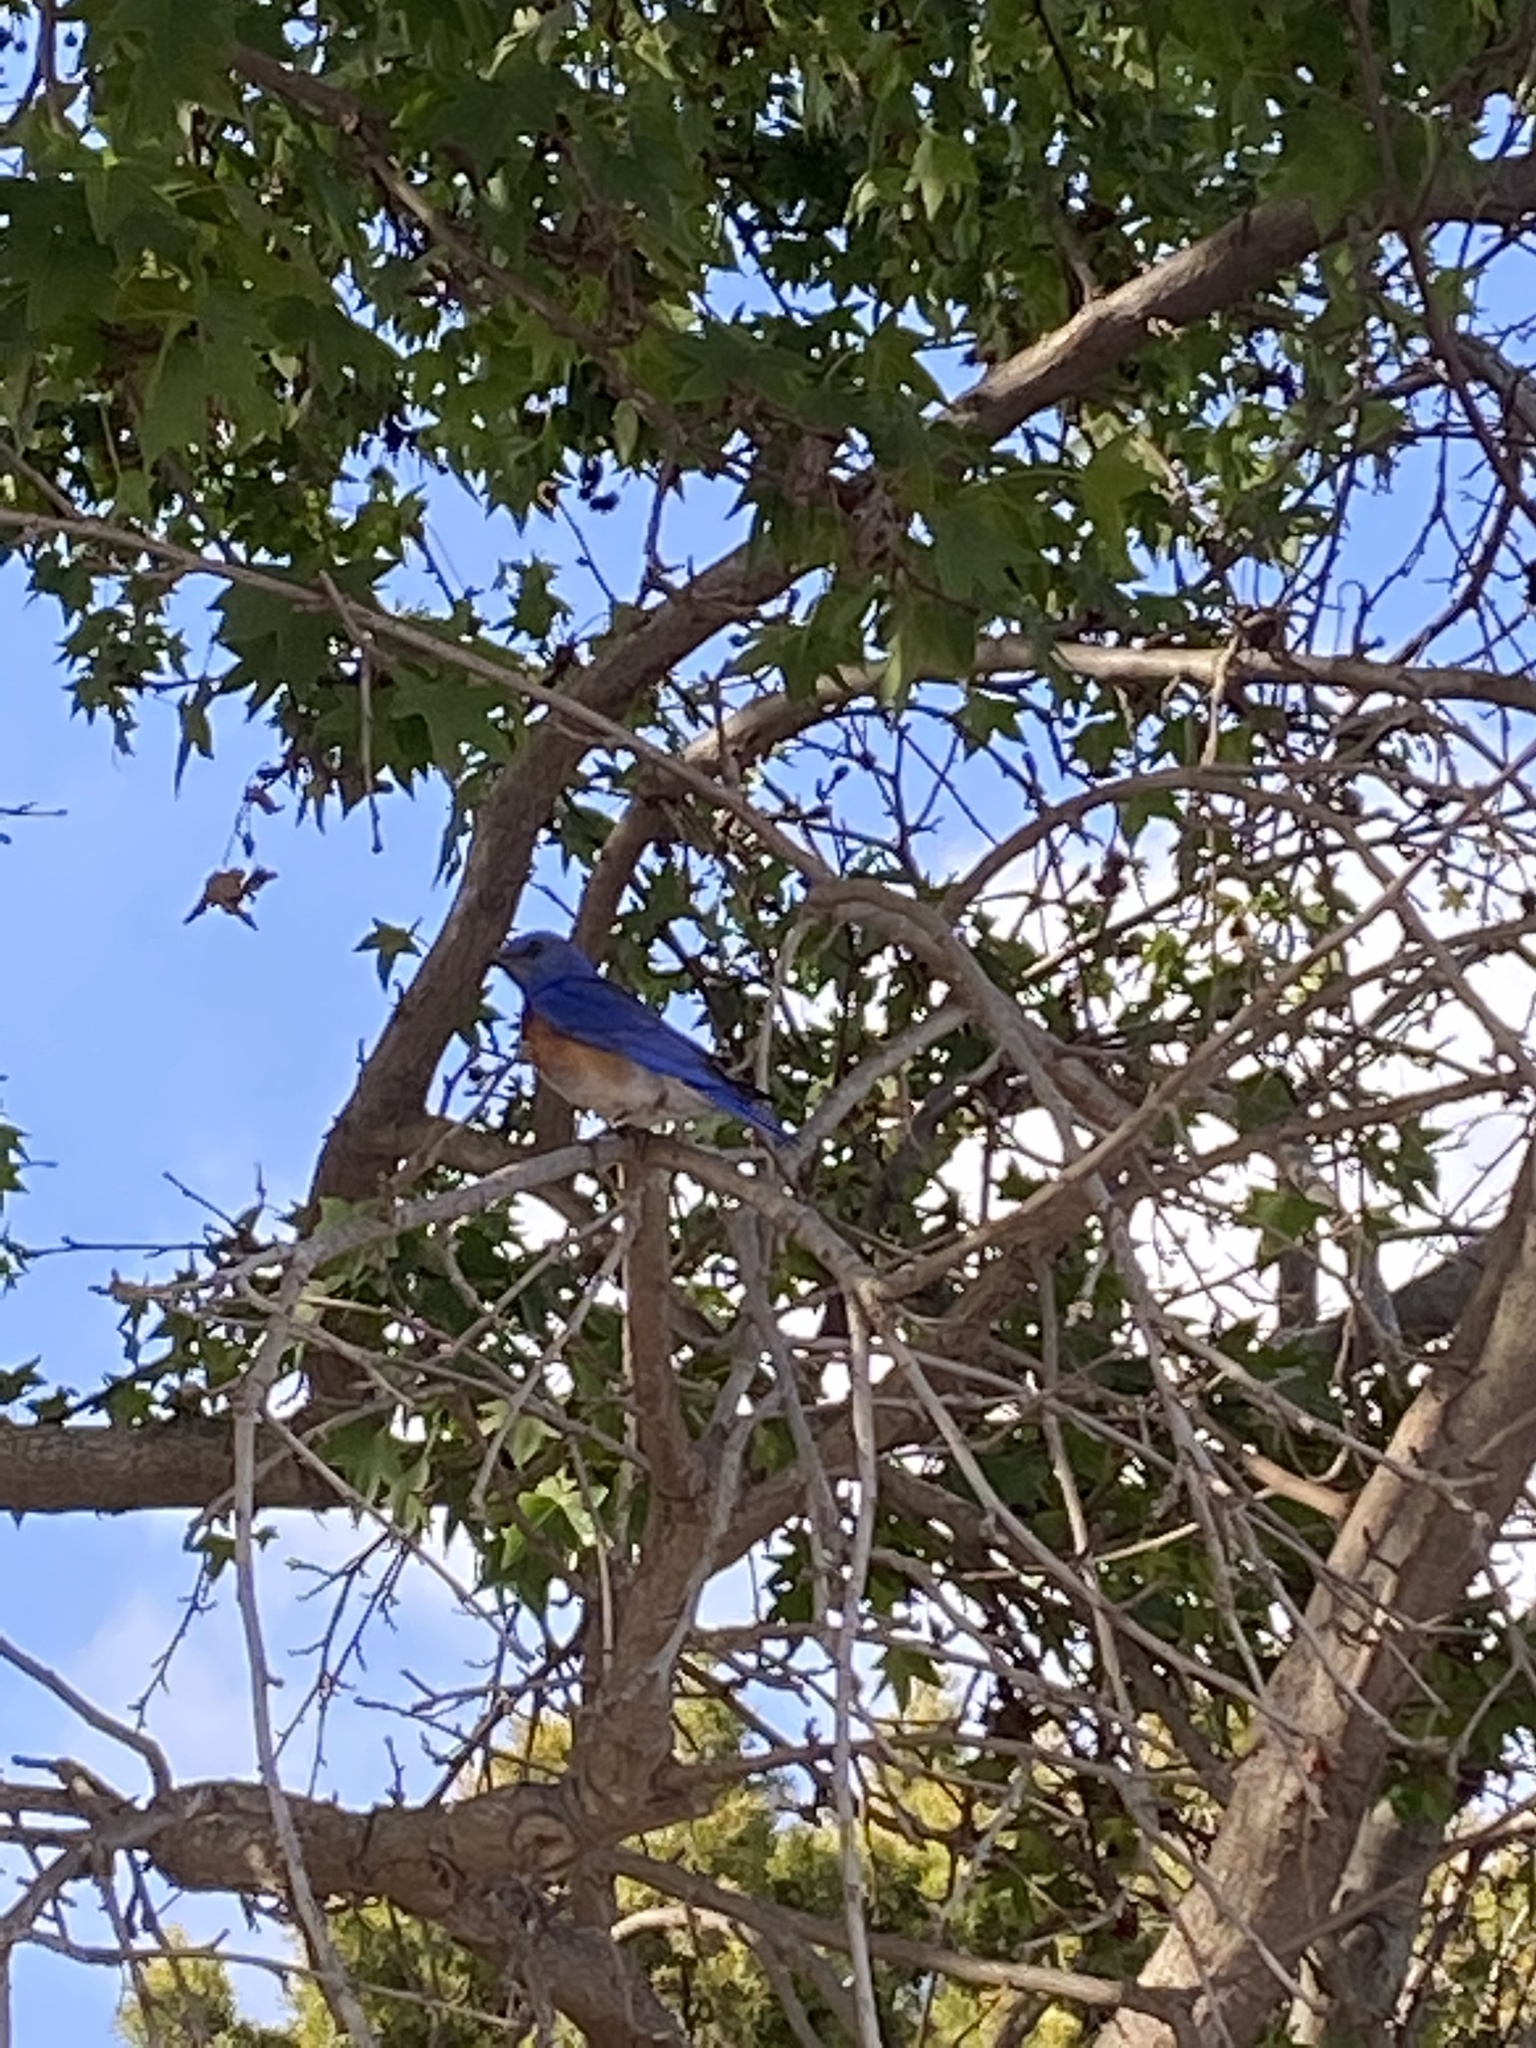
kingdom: Animalia
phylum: Chordata
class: Aves
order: Passeriformes
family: Turdidae
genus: Sialia
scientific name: Sialia mexicana
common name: Western bluebird
